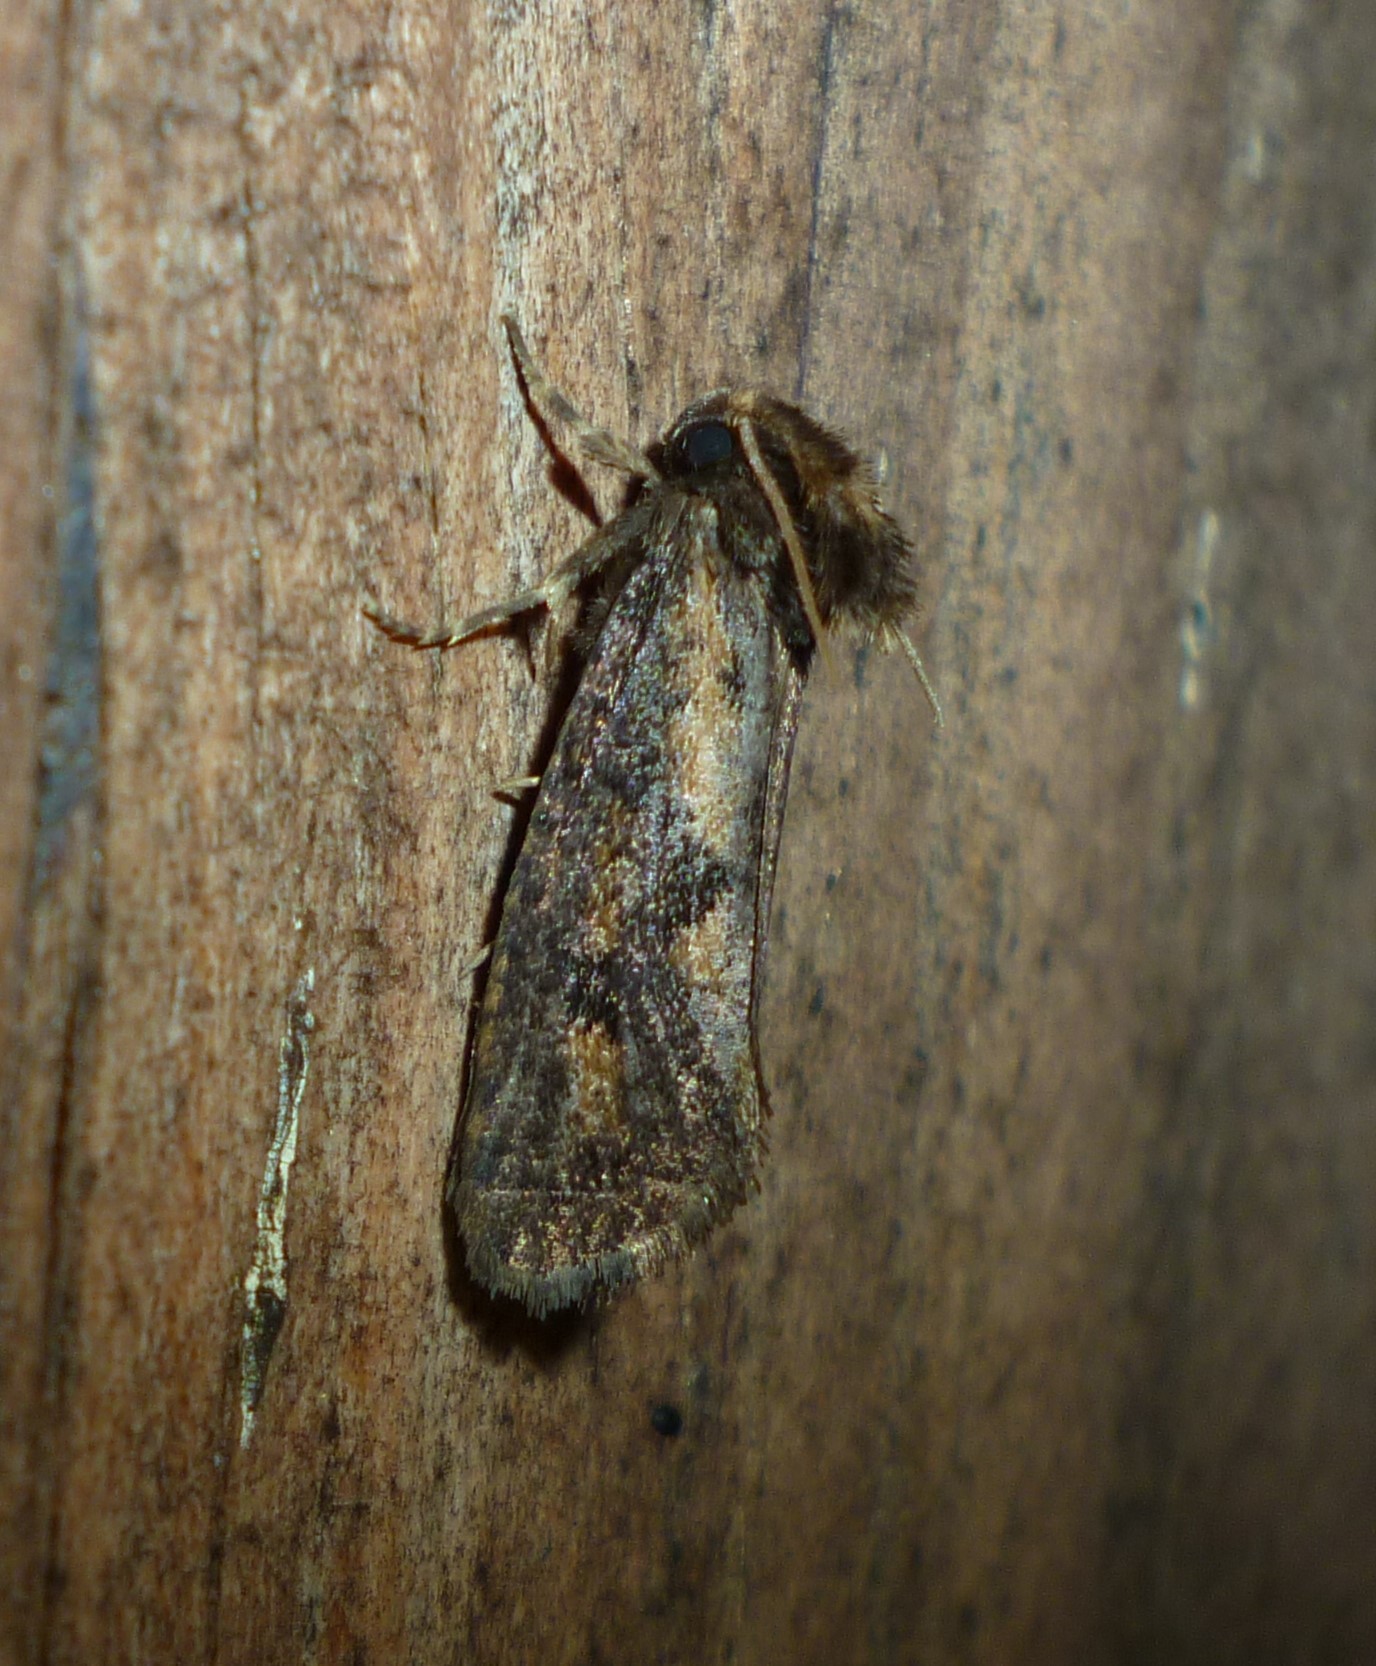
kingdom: Animalia
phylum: Arthropoda
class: Insecta
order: Lepidoptera
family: Tineidae
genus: Acrolophus
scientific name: Acrolophus popeanella
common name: Clemens' grass tubeworm moth
